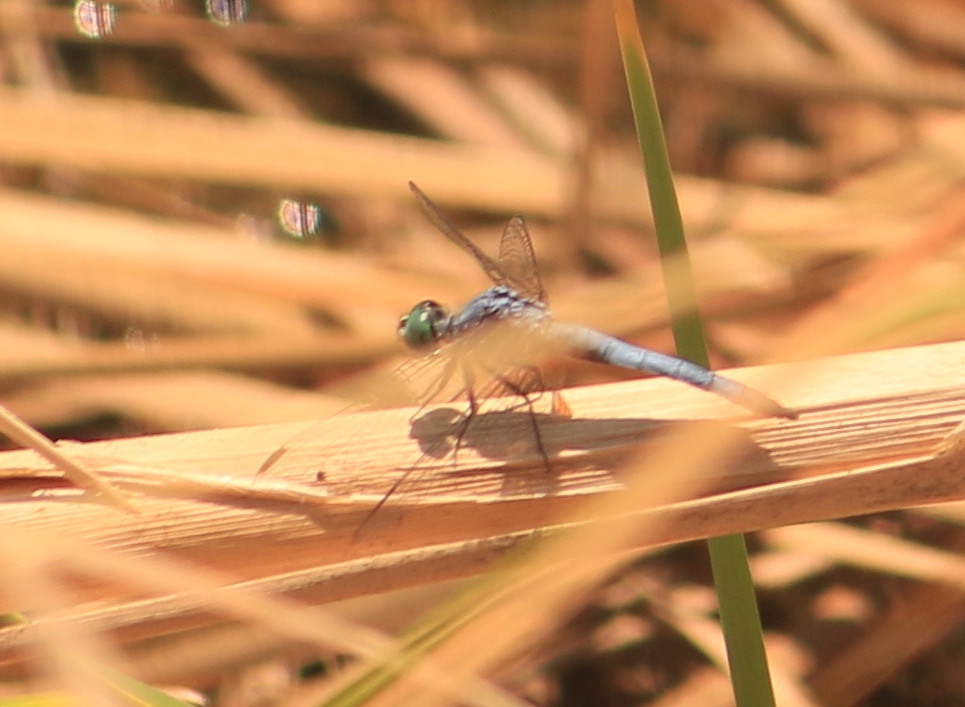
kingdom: Animalia
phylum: Arthropoda
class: Insecta
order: Odonata
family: Libellulidae
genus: Pachydiplax
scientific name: Pachydiplax longipennis
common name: Blue dasher
